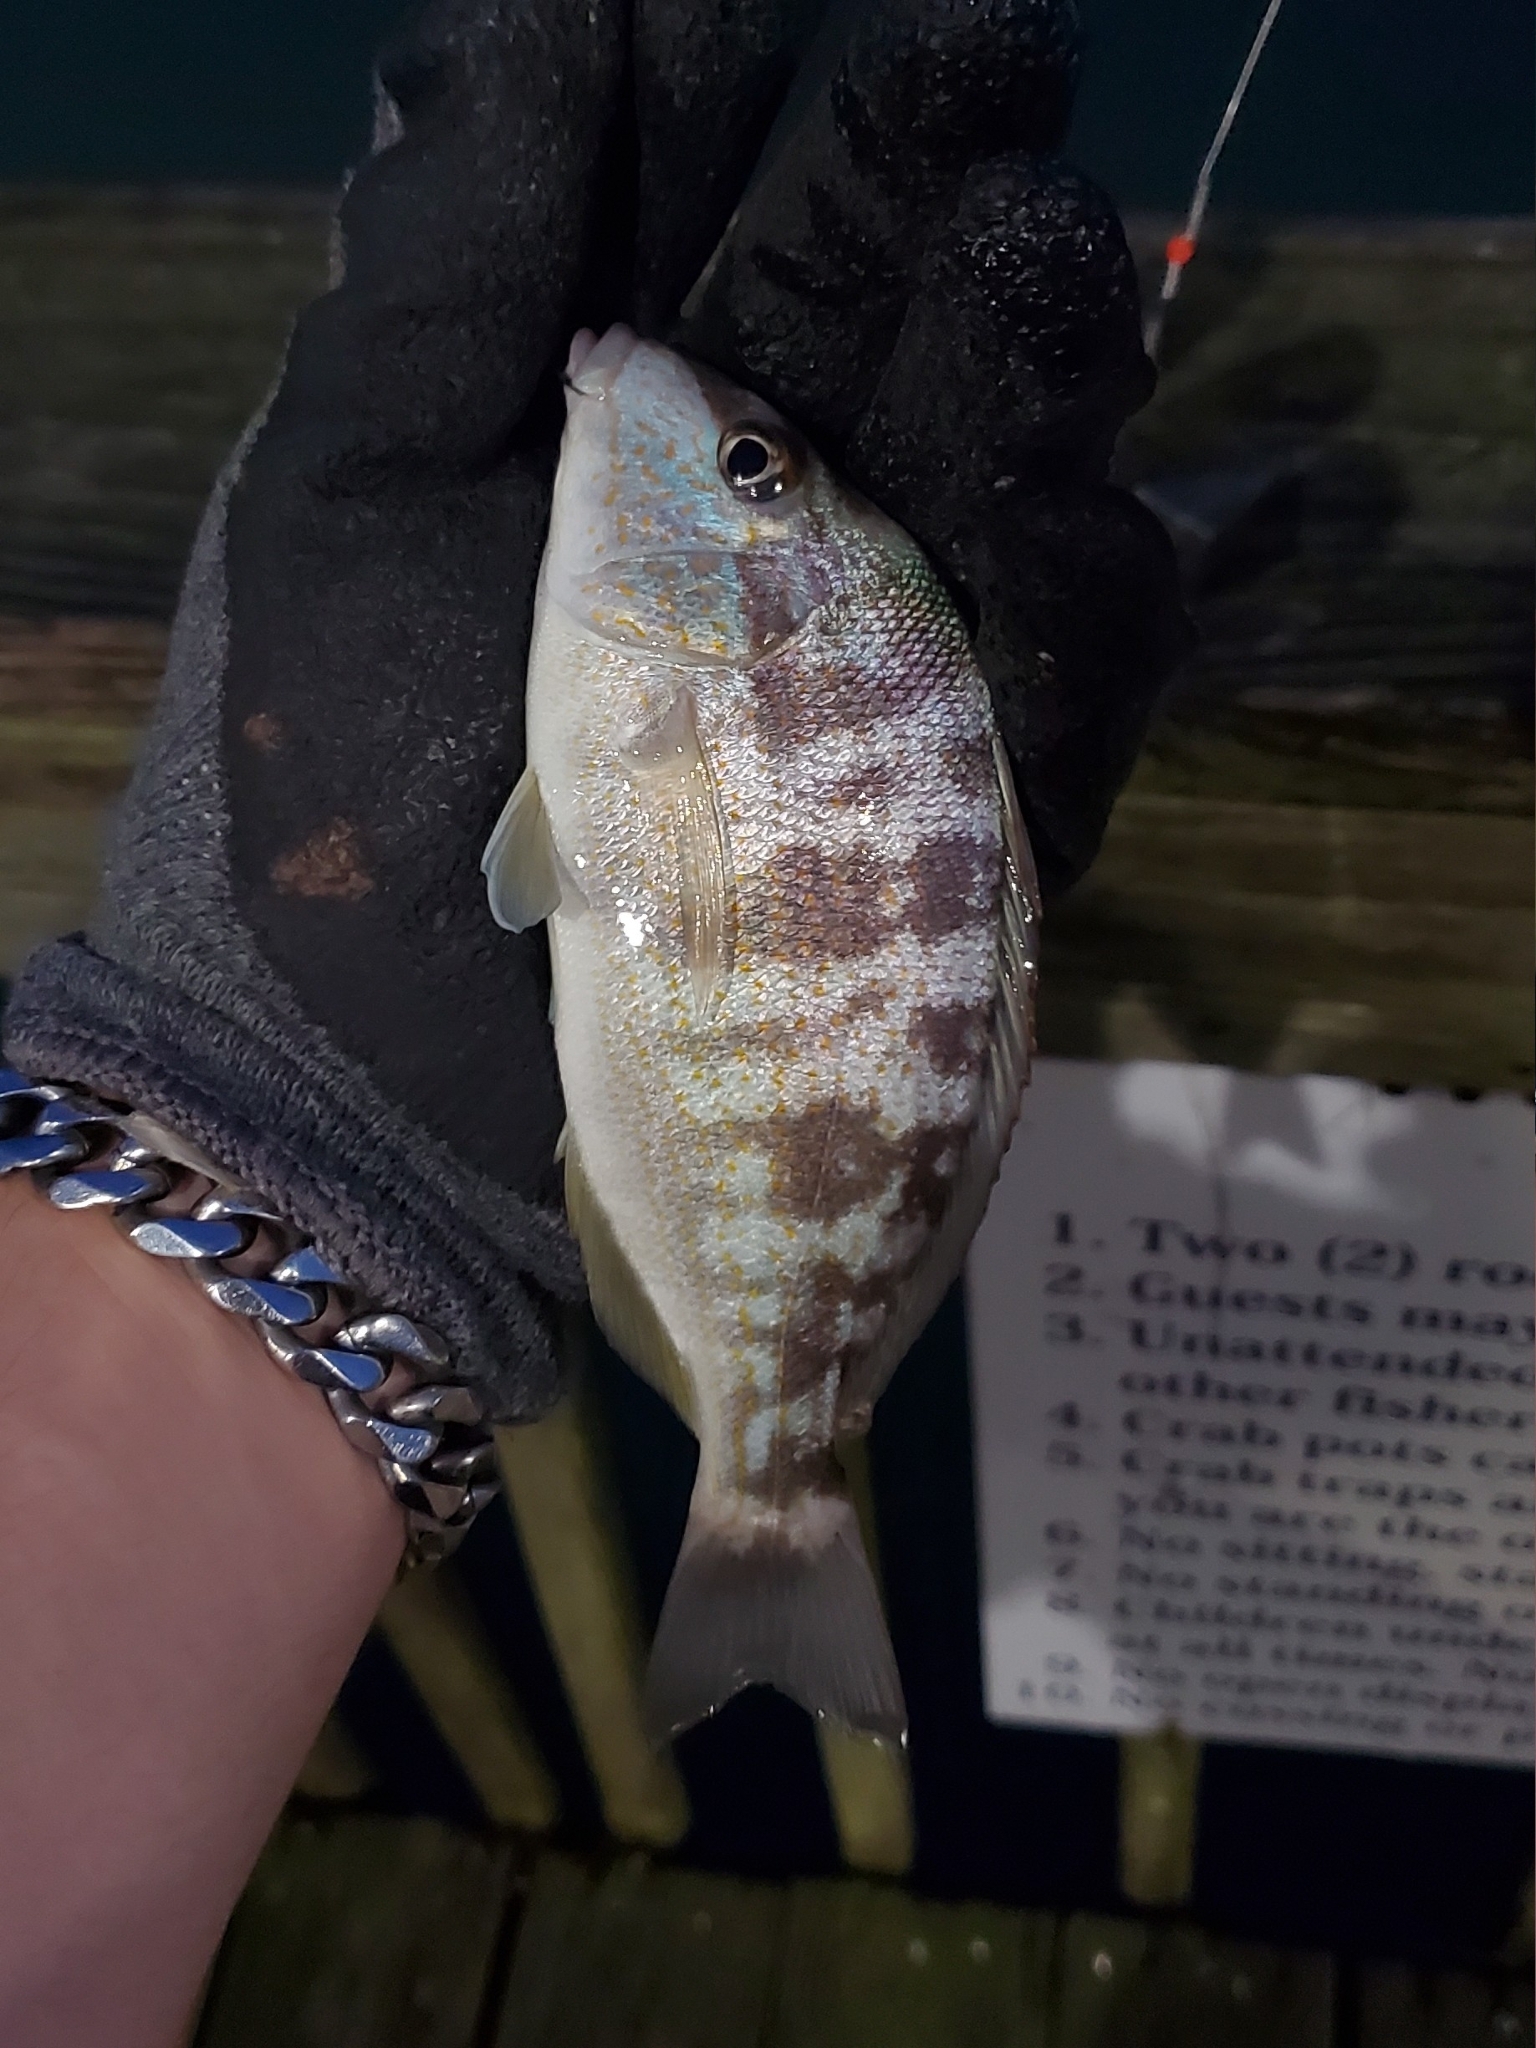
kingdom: Animalia
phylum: Chordata
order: Perciformes
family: Haemulidae
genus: Orthopristis
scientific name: Orthopristis chrysoptera
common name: Pigfish
